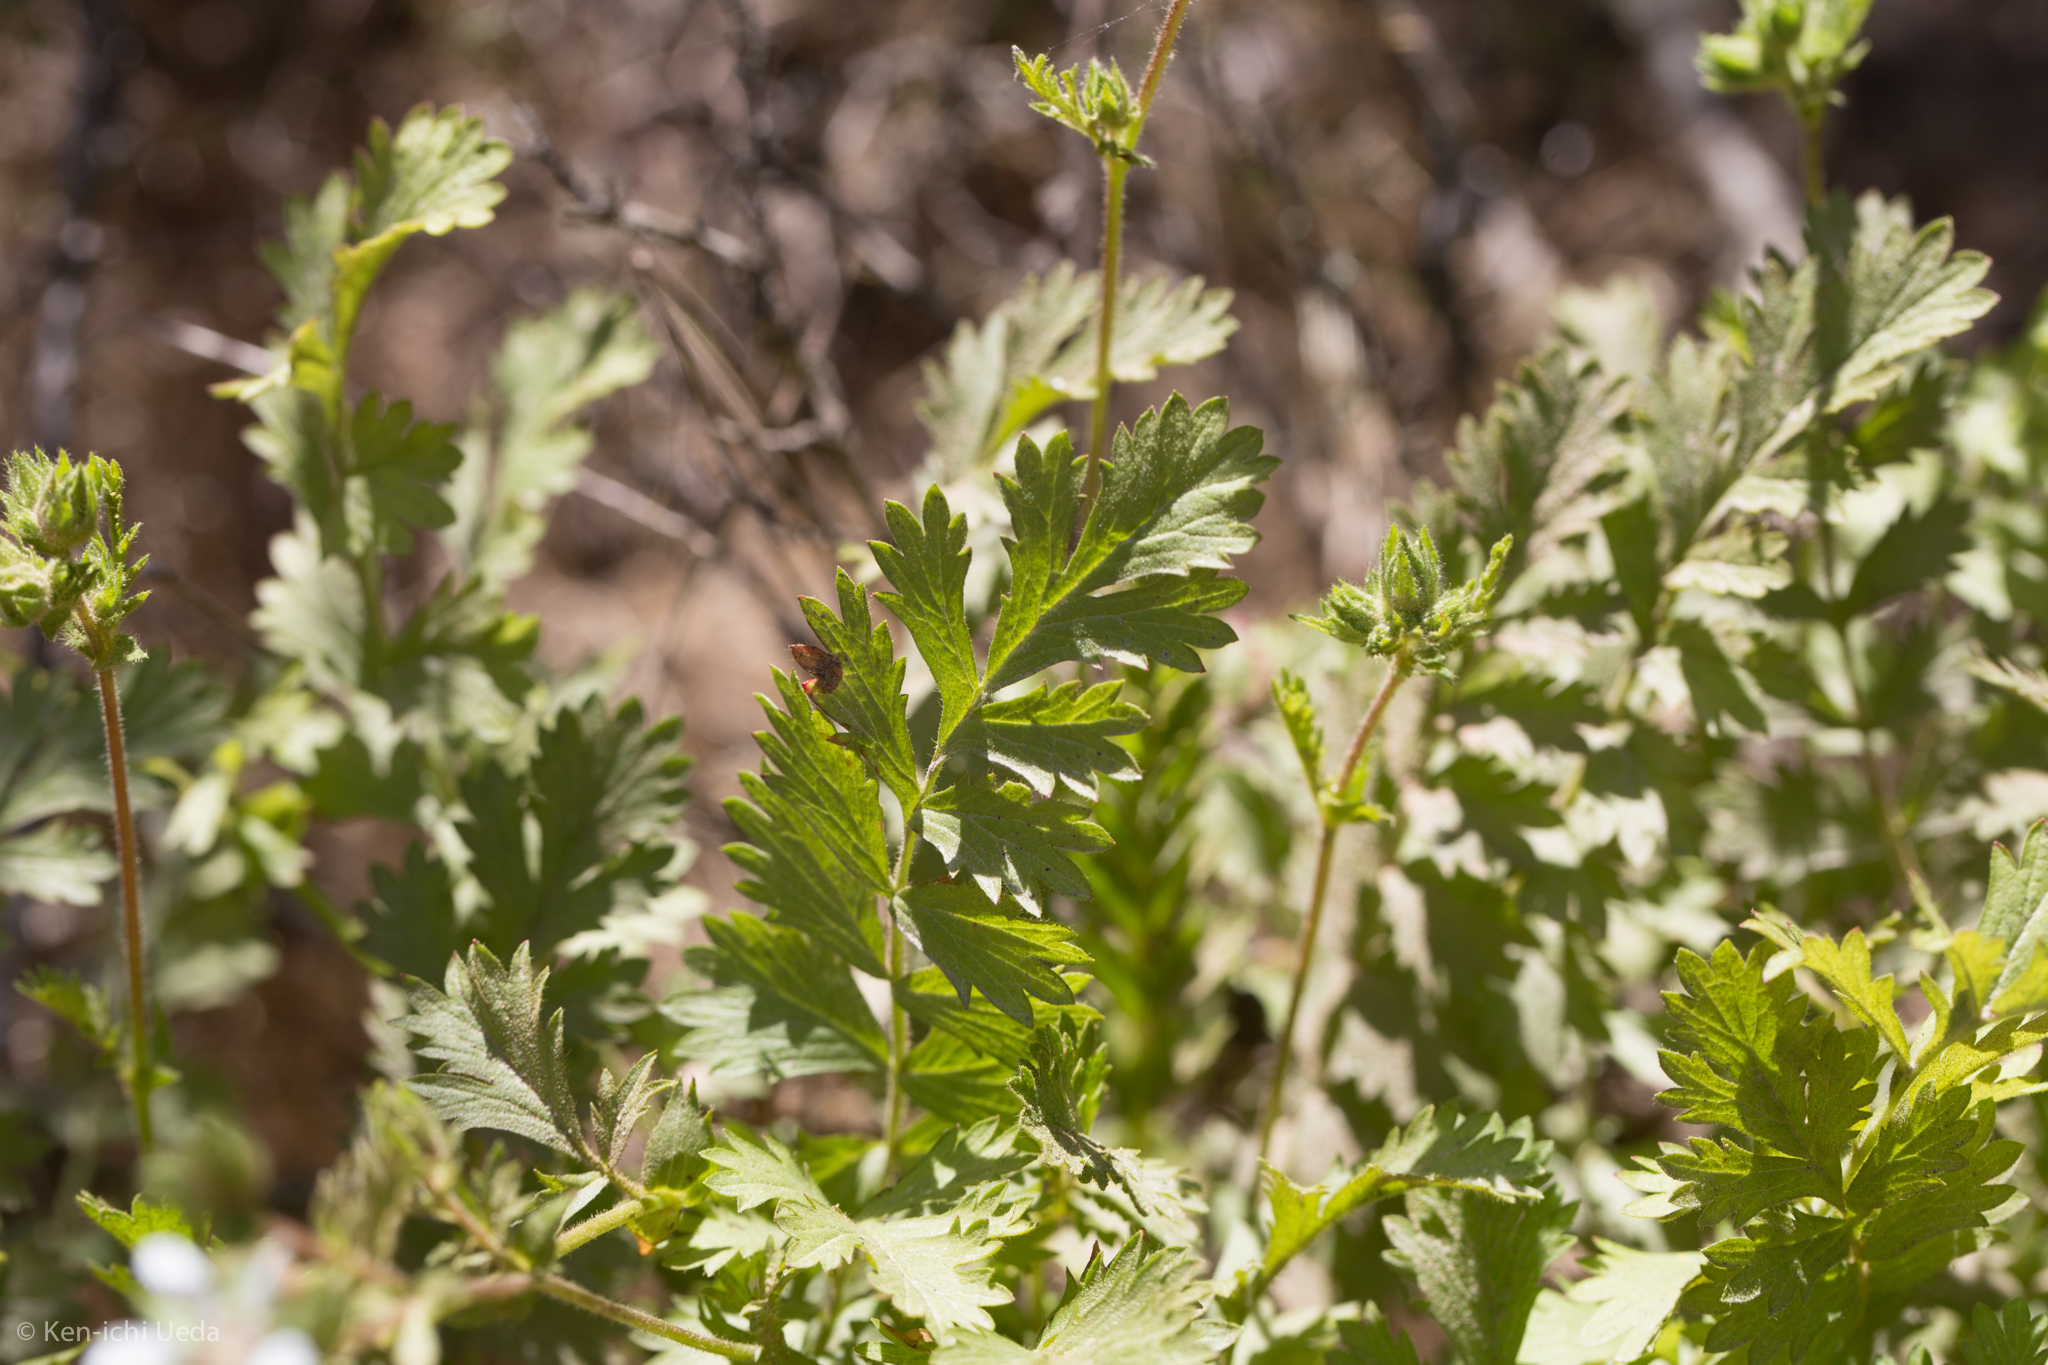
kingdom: Plantae
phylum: Tracheophyta
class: Magnoliopsida
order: Rosales
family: Rosaceae
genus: Potentilla
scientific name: Potentilla
